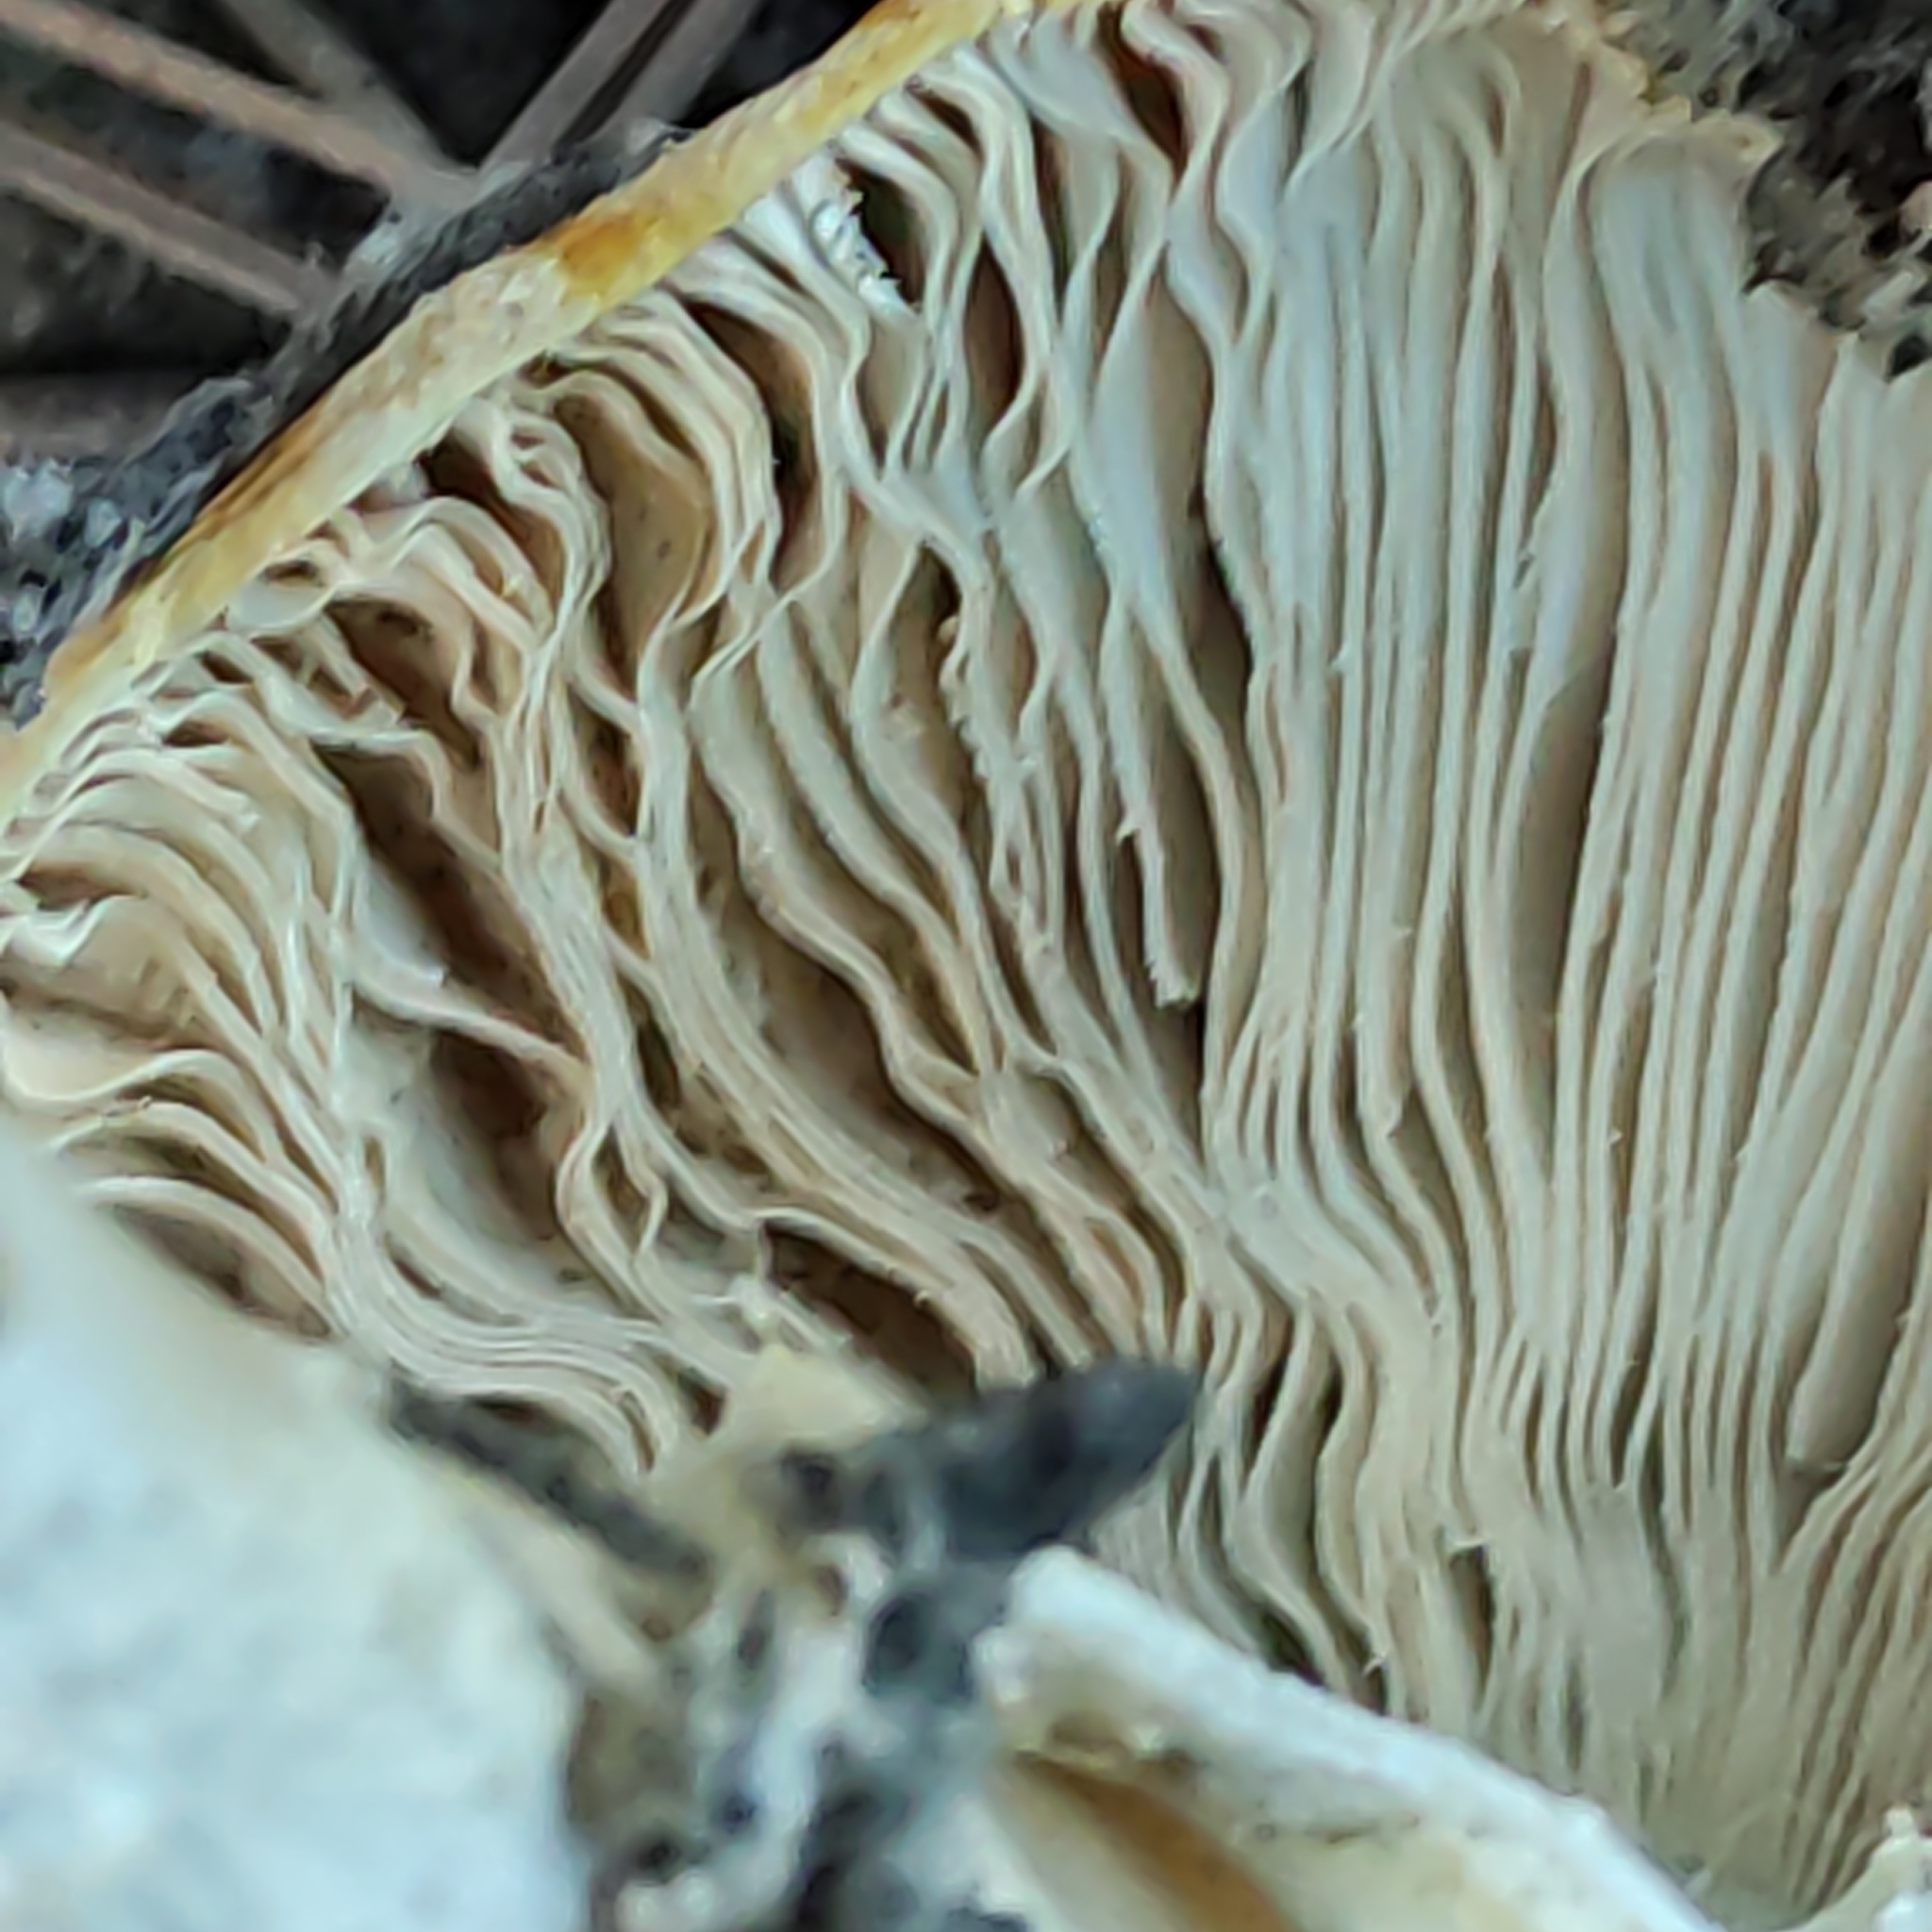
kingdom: Fungi
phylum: Basidiomycota
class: Agaricomycetes
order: Agaricales
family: Amanitaceae
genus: Amanita
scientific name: Amanita muscaria
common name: Fly agaric
